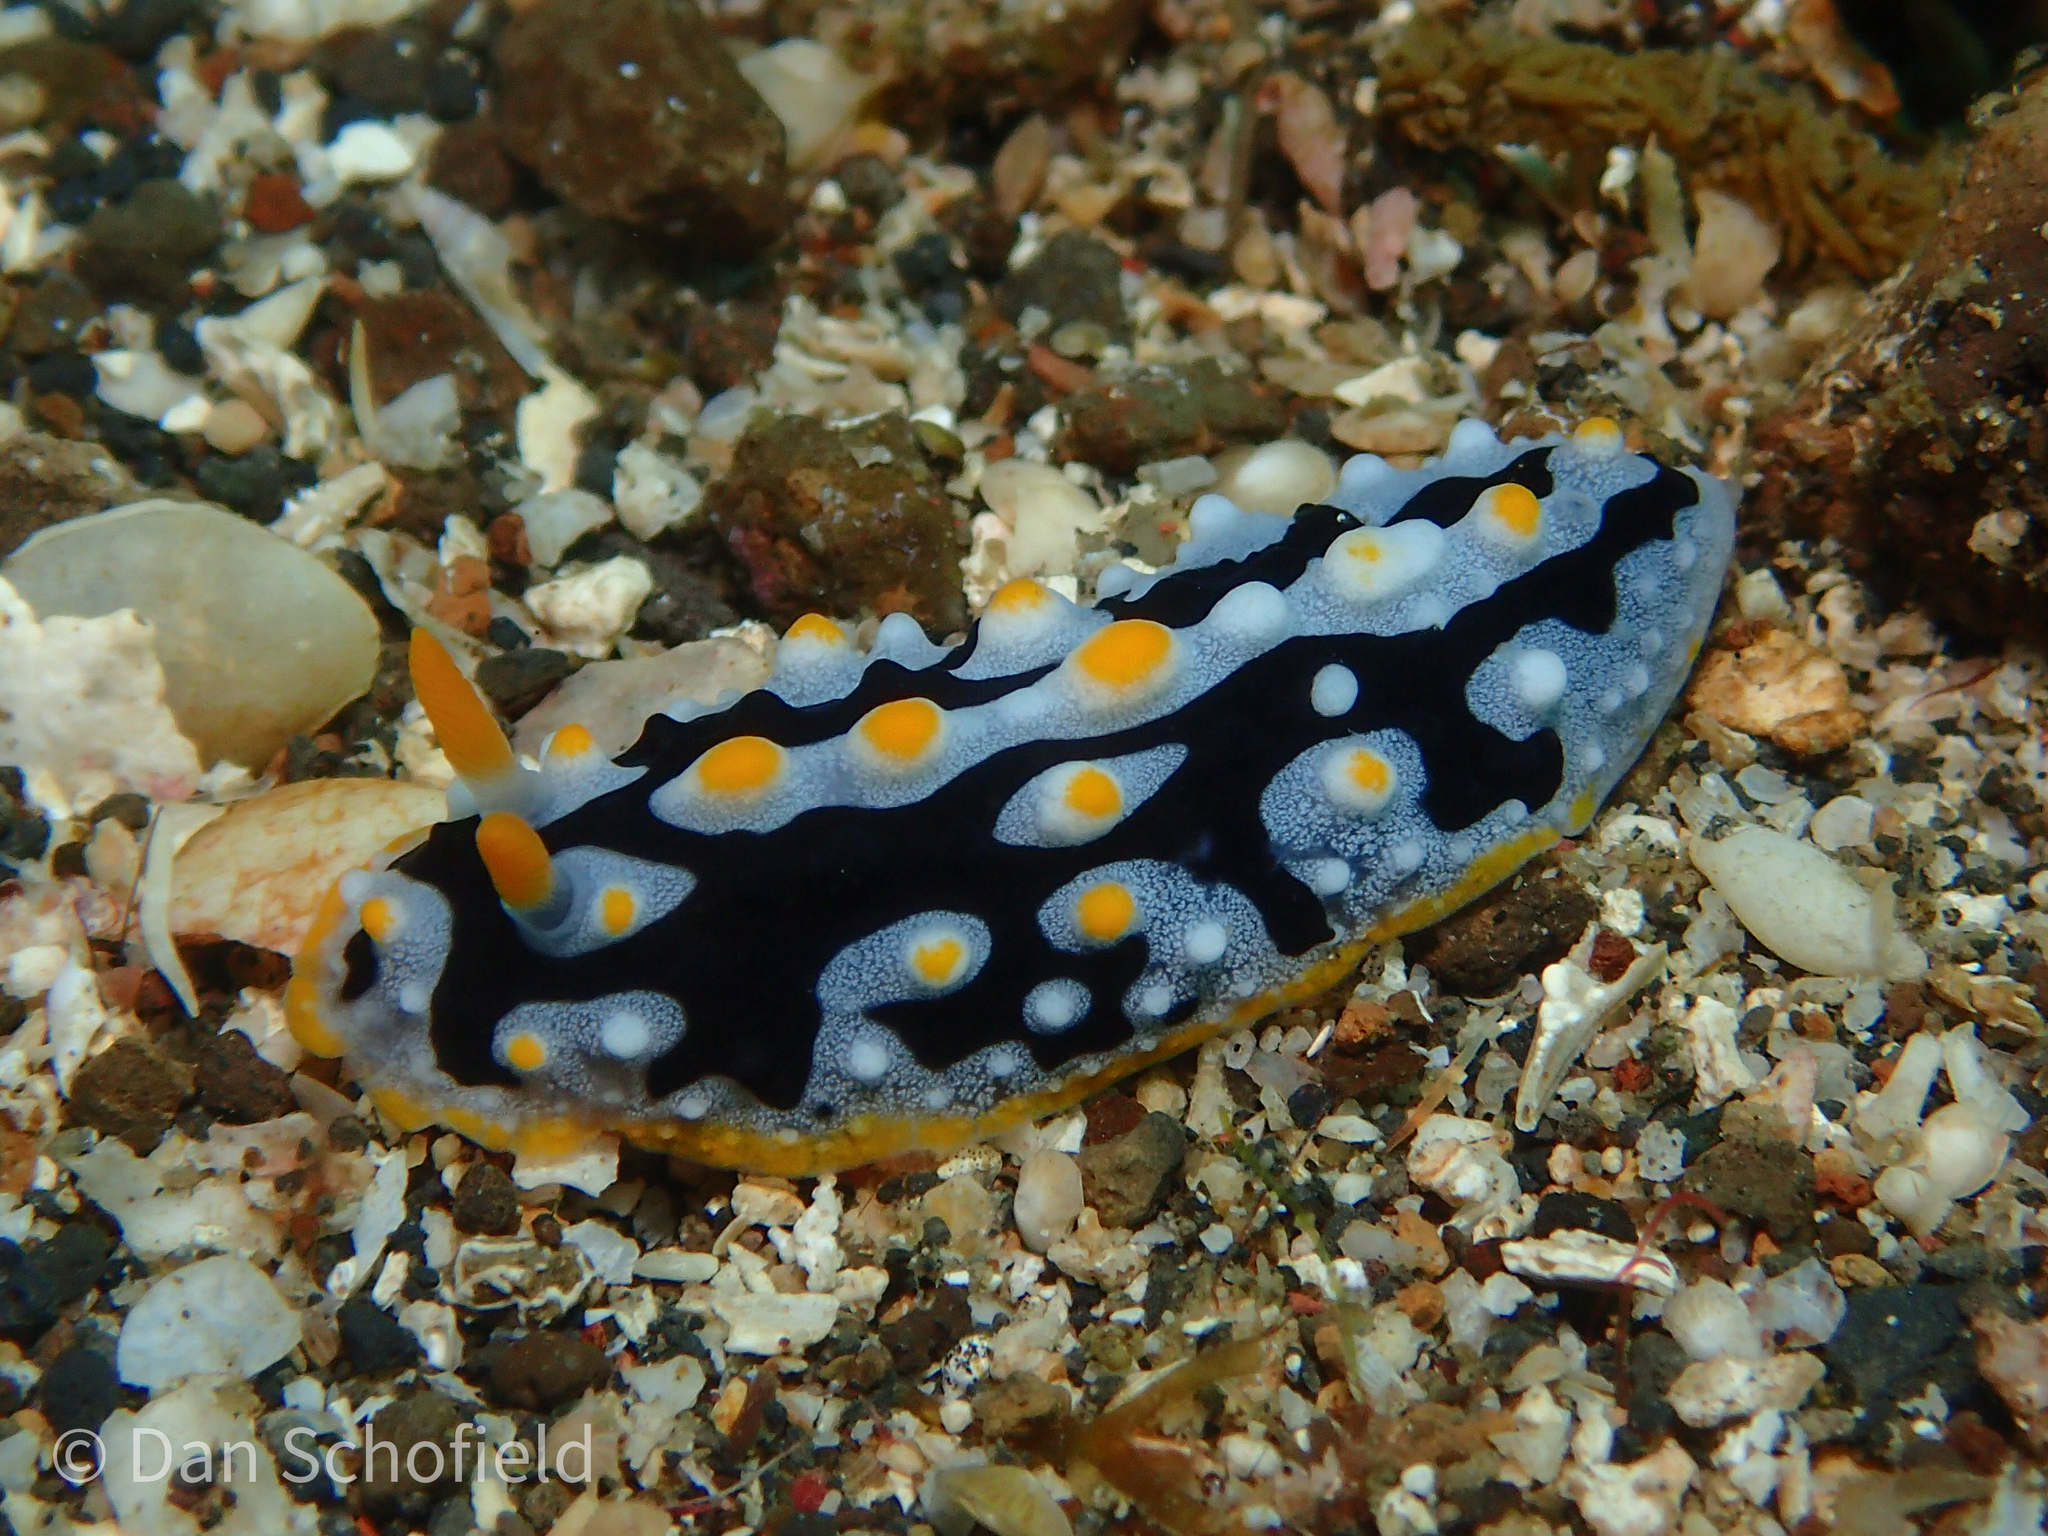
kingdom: Animalia
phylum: Mollusca
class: Gastropoda
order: Nudibranchia
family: Phyllidiidae
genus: Phyllidia
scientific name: Phyllidia exquisita
